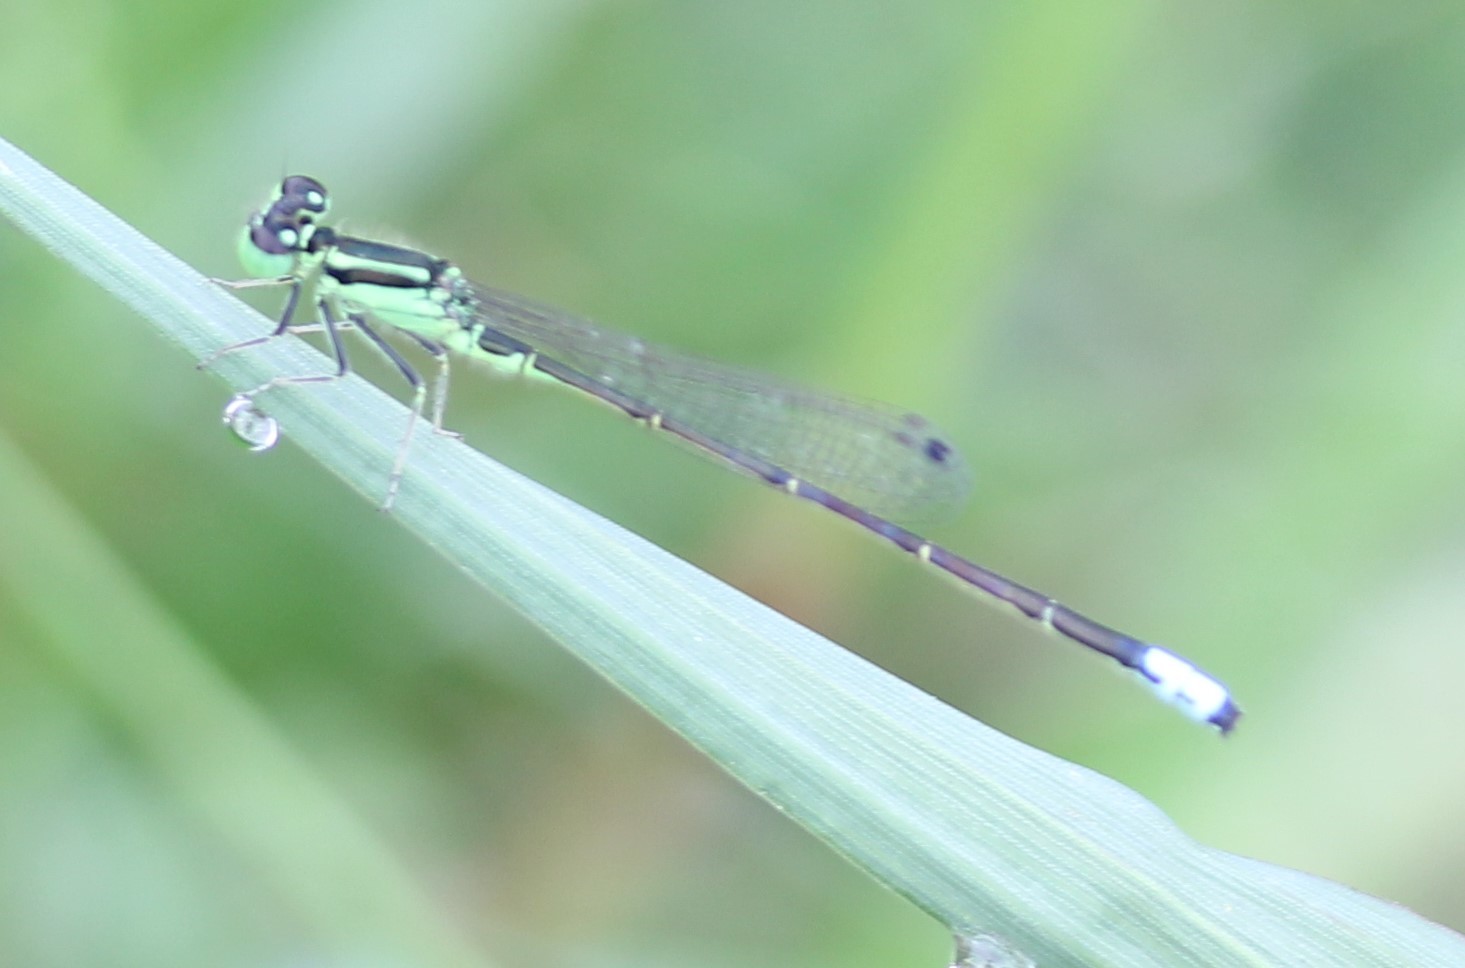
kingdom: Animalia
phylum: Arthropoda
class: Insecta
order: Odonata
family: Coenagrionidae
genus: Ischnura
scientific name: Ischnura verticalis
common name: Eastern forktail
